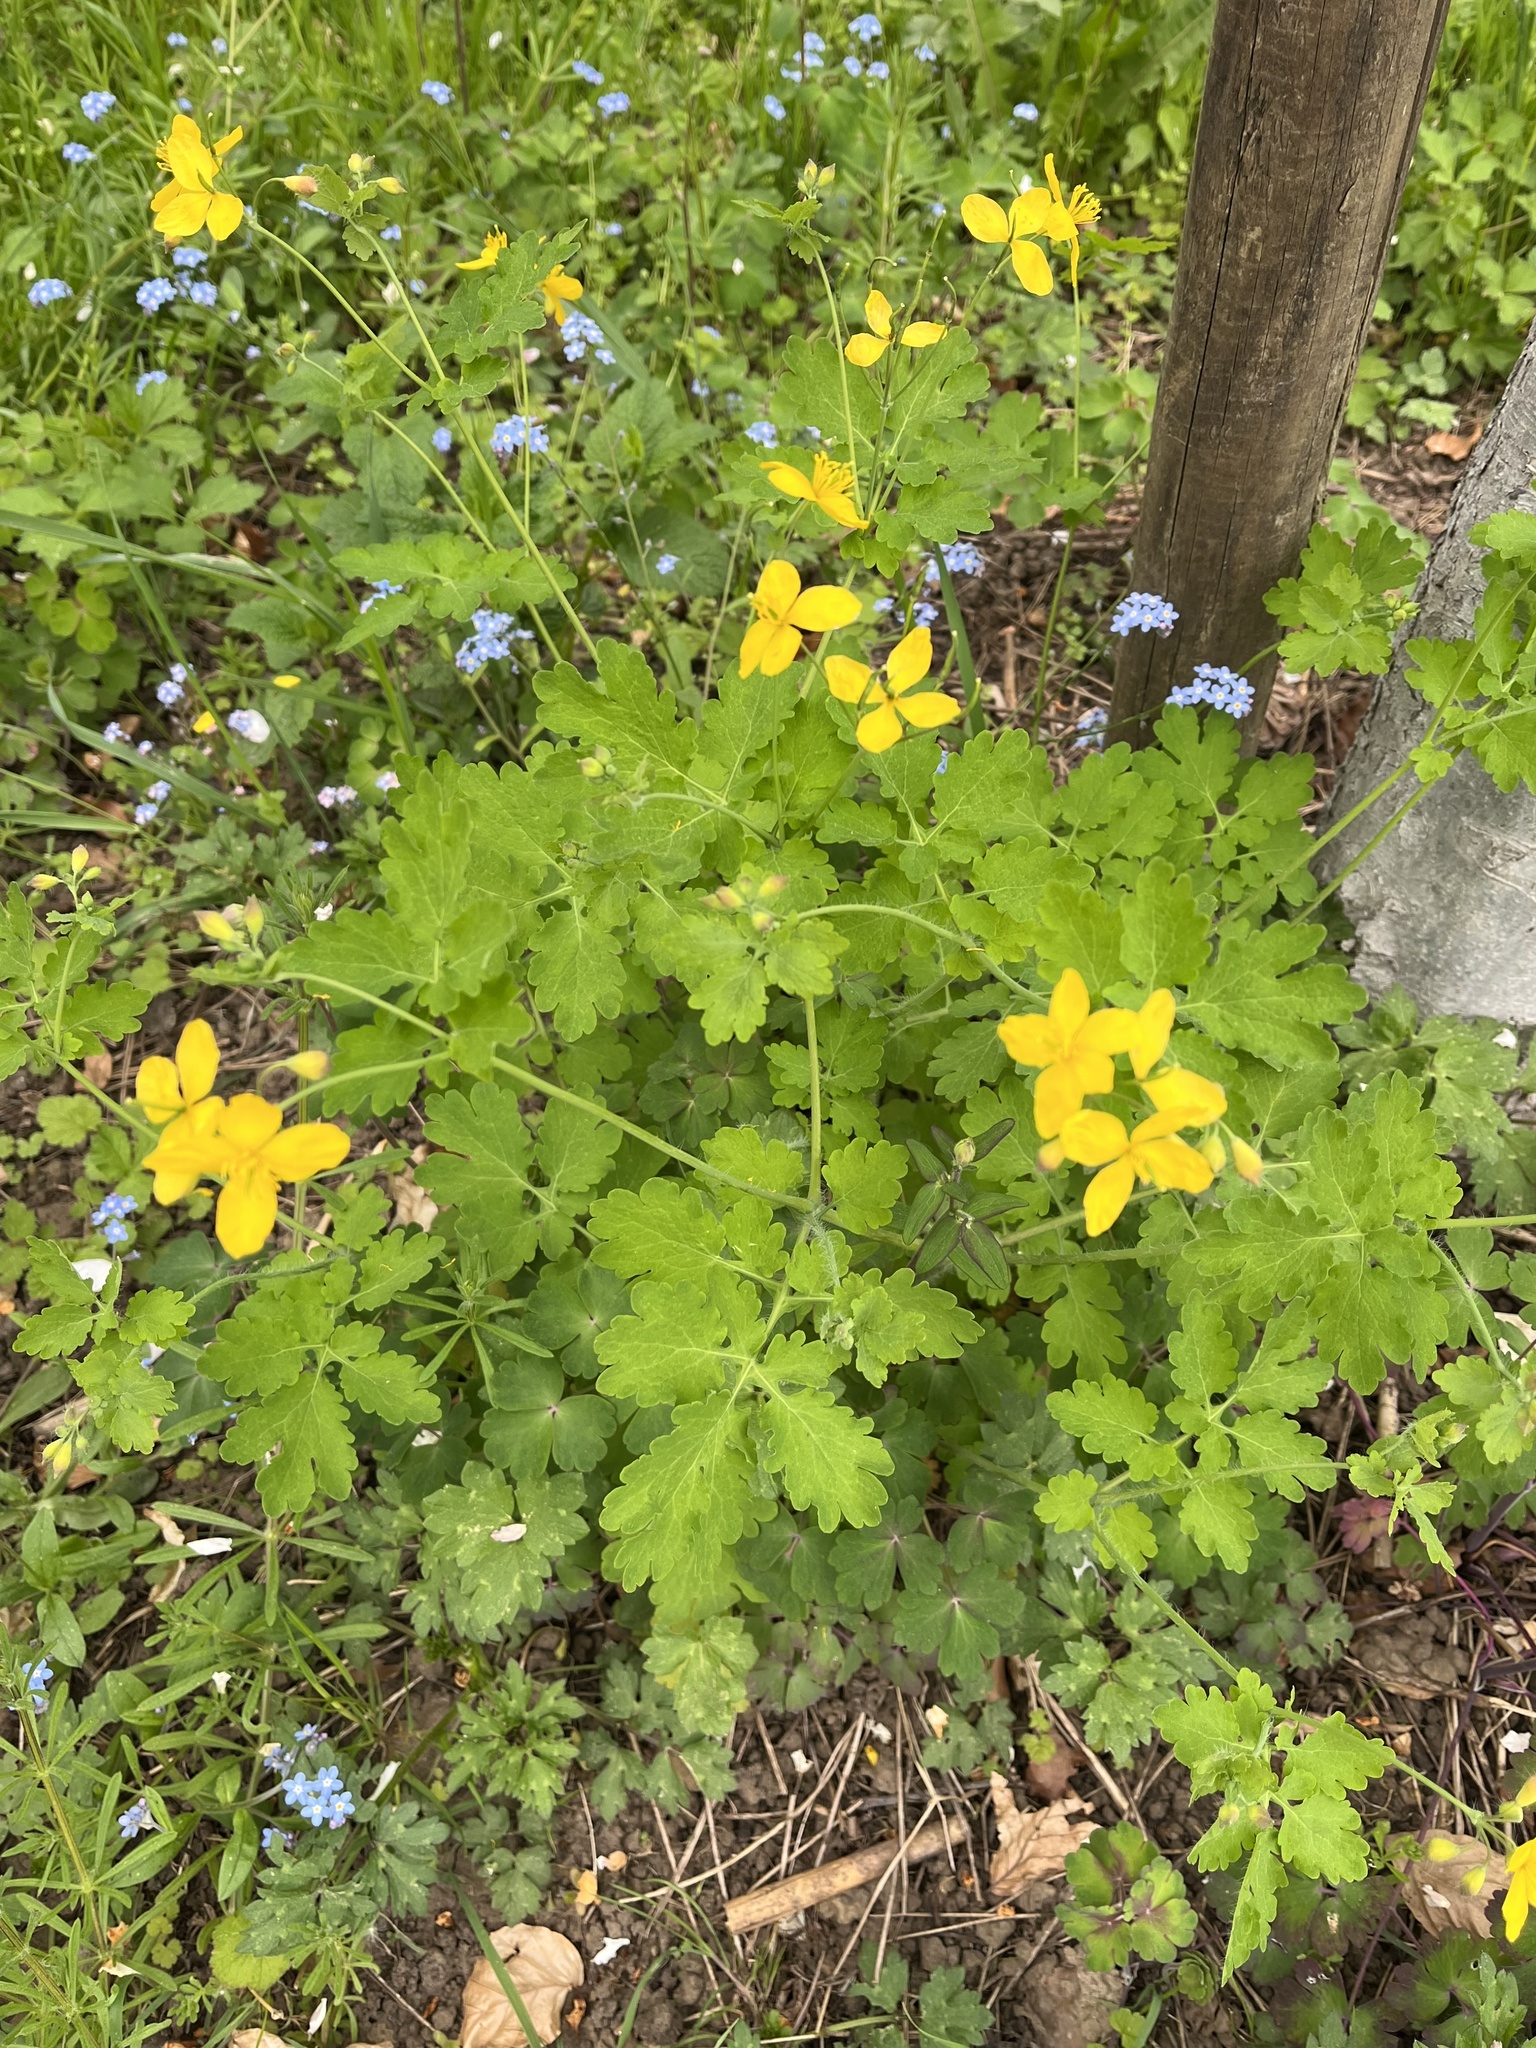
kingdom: Plantae
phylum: Tracheophyta
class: Magnoliopsida
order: Ranunculales
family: Papaveraceae
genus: Chelidonium
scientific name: Chelidonium majus
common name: Greater celandine
